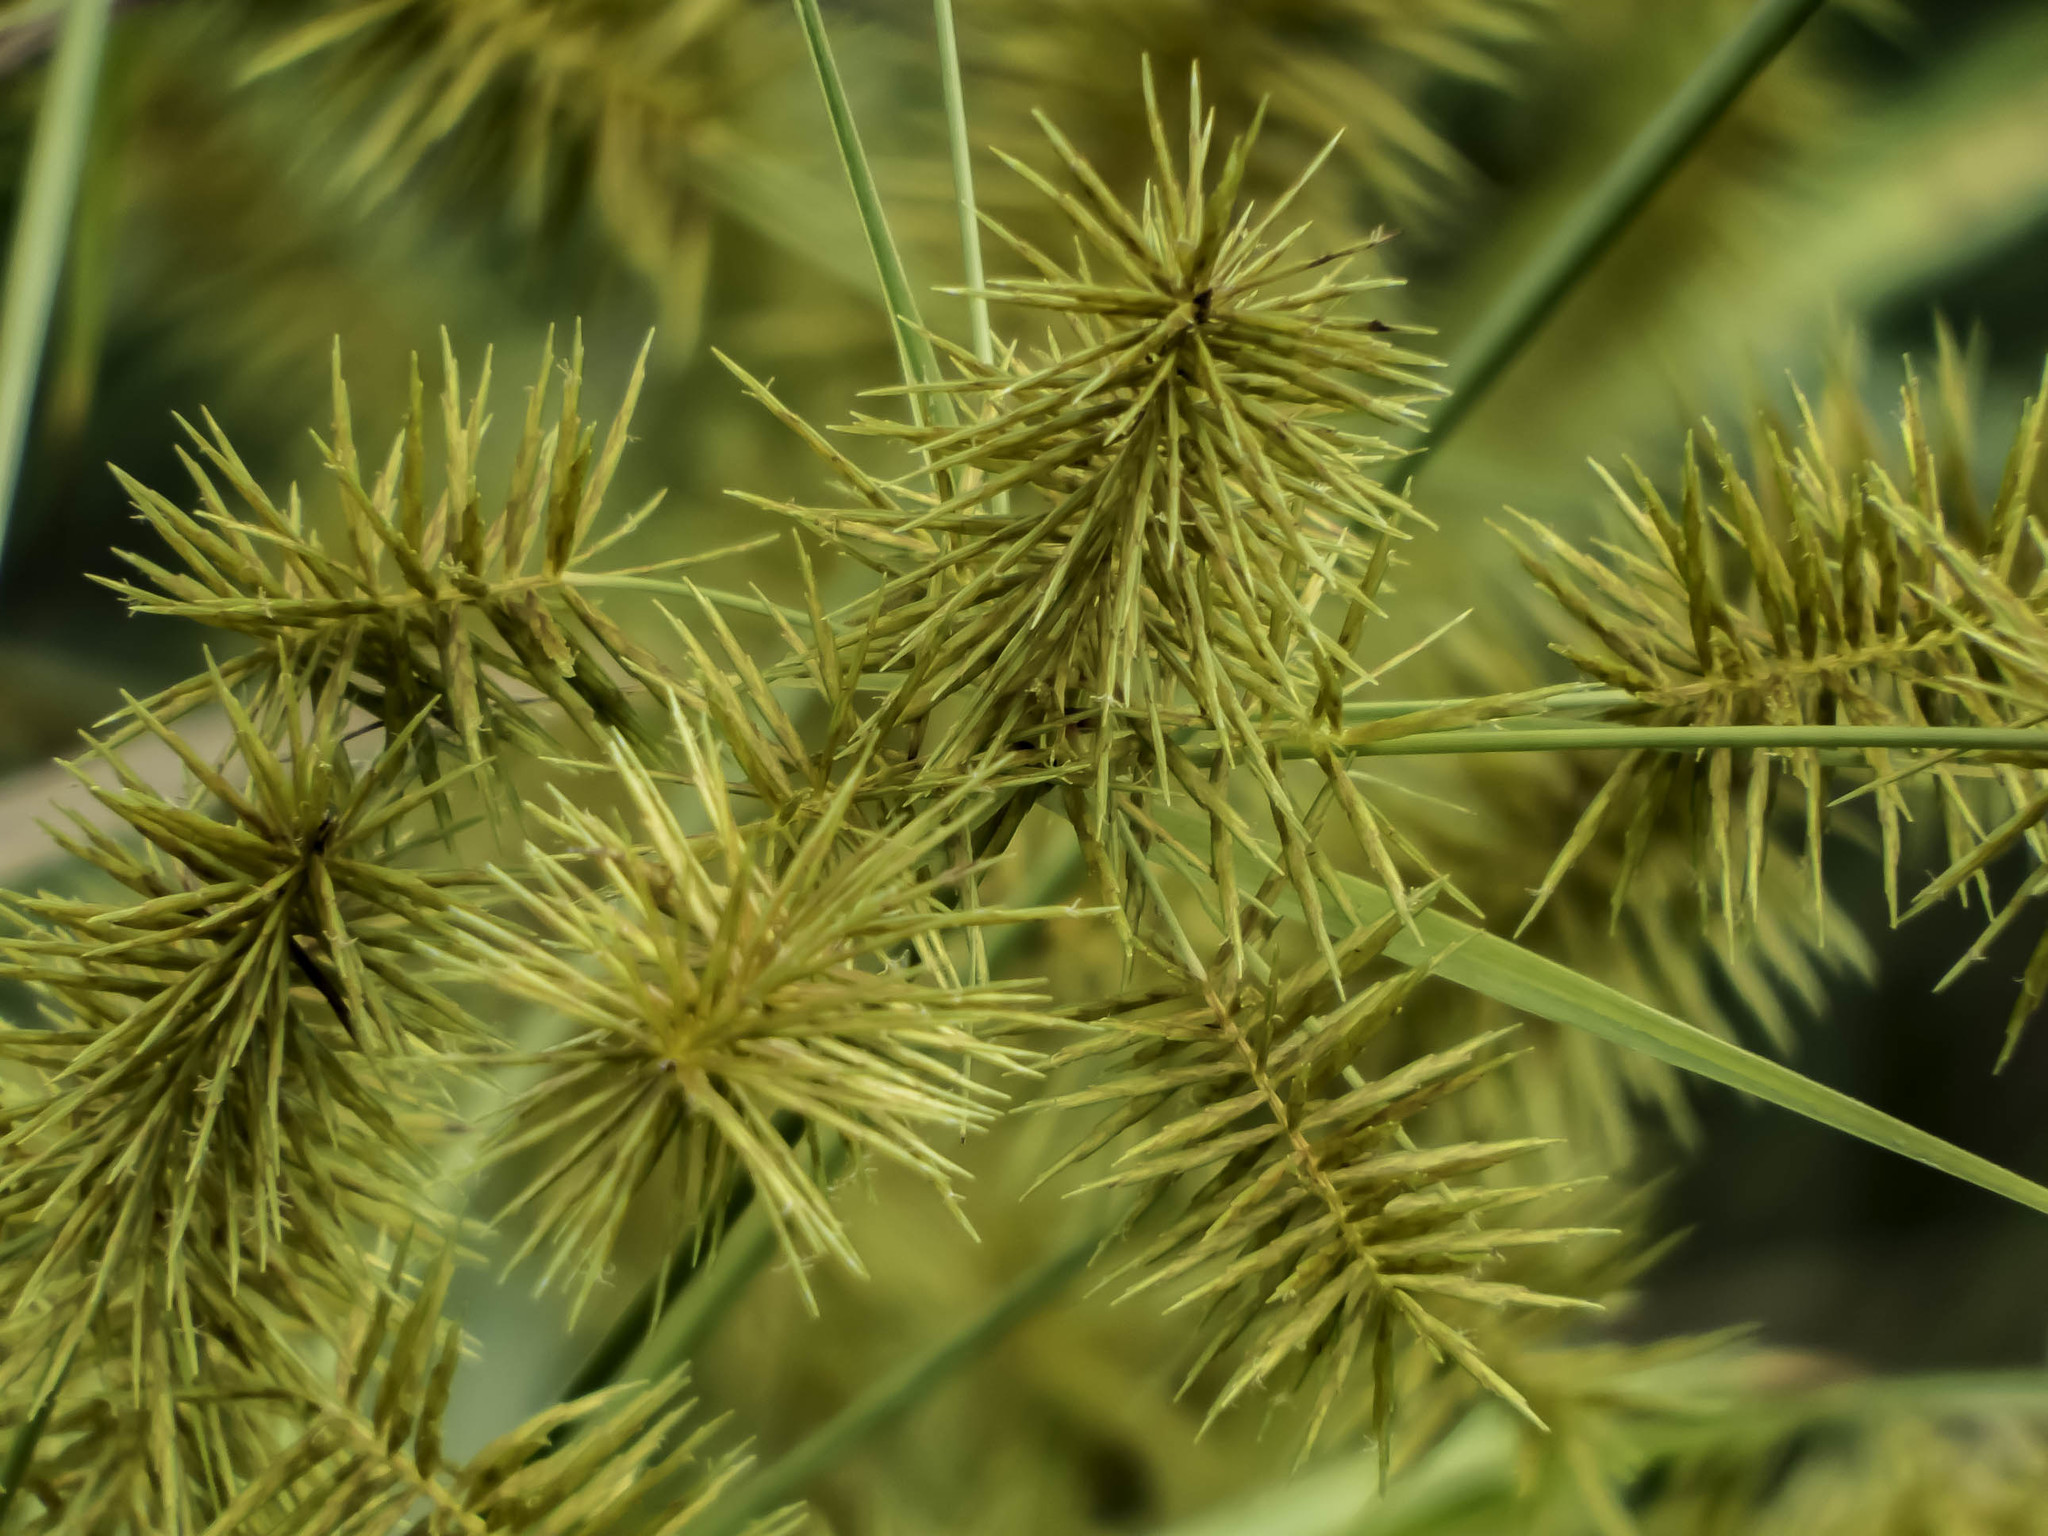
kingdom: Plantae
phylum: Tracheophyta
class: Liliopsida
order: Poales
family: Cyperaceae
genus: Cyperus
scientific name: Cyperus strigosus
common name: False nutsedge
